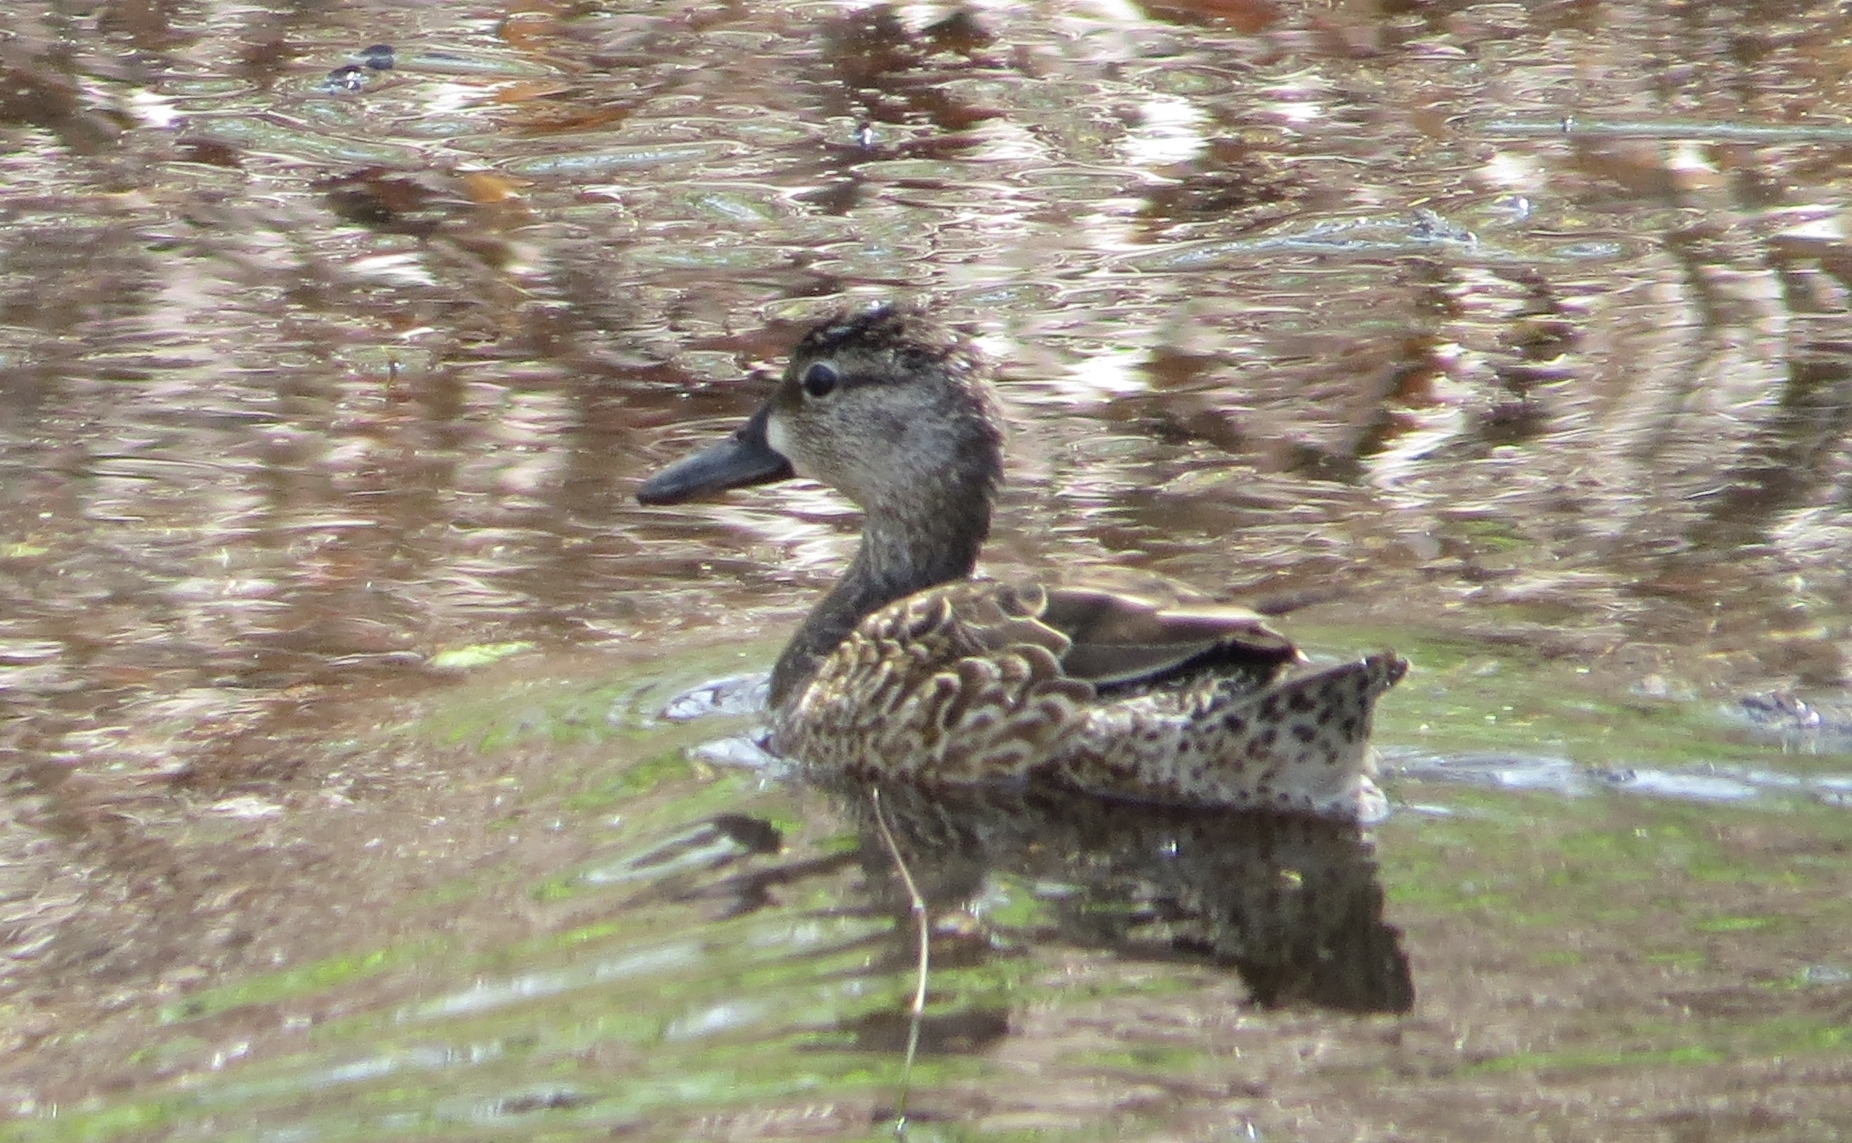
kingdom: Animalia
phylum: Chordata
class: Aves
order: Anseriformes
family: Anatidae
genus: Spatula
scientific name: Spatula discors
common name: Blue-winged teal
